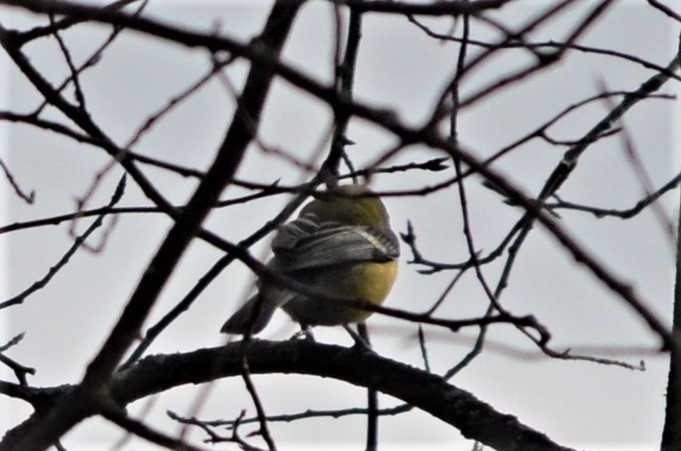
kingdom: Animalia
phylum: Chordata
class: Aves
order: Passeriformes
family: Paridae
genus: Parus
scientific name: Parus major
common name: Great tit
